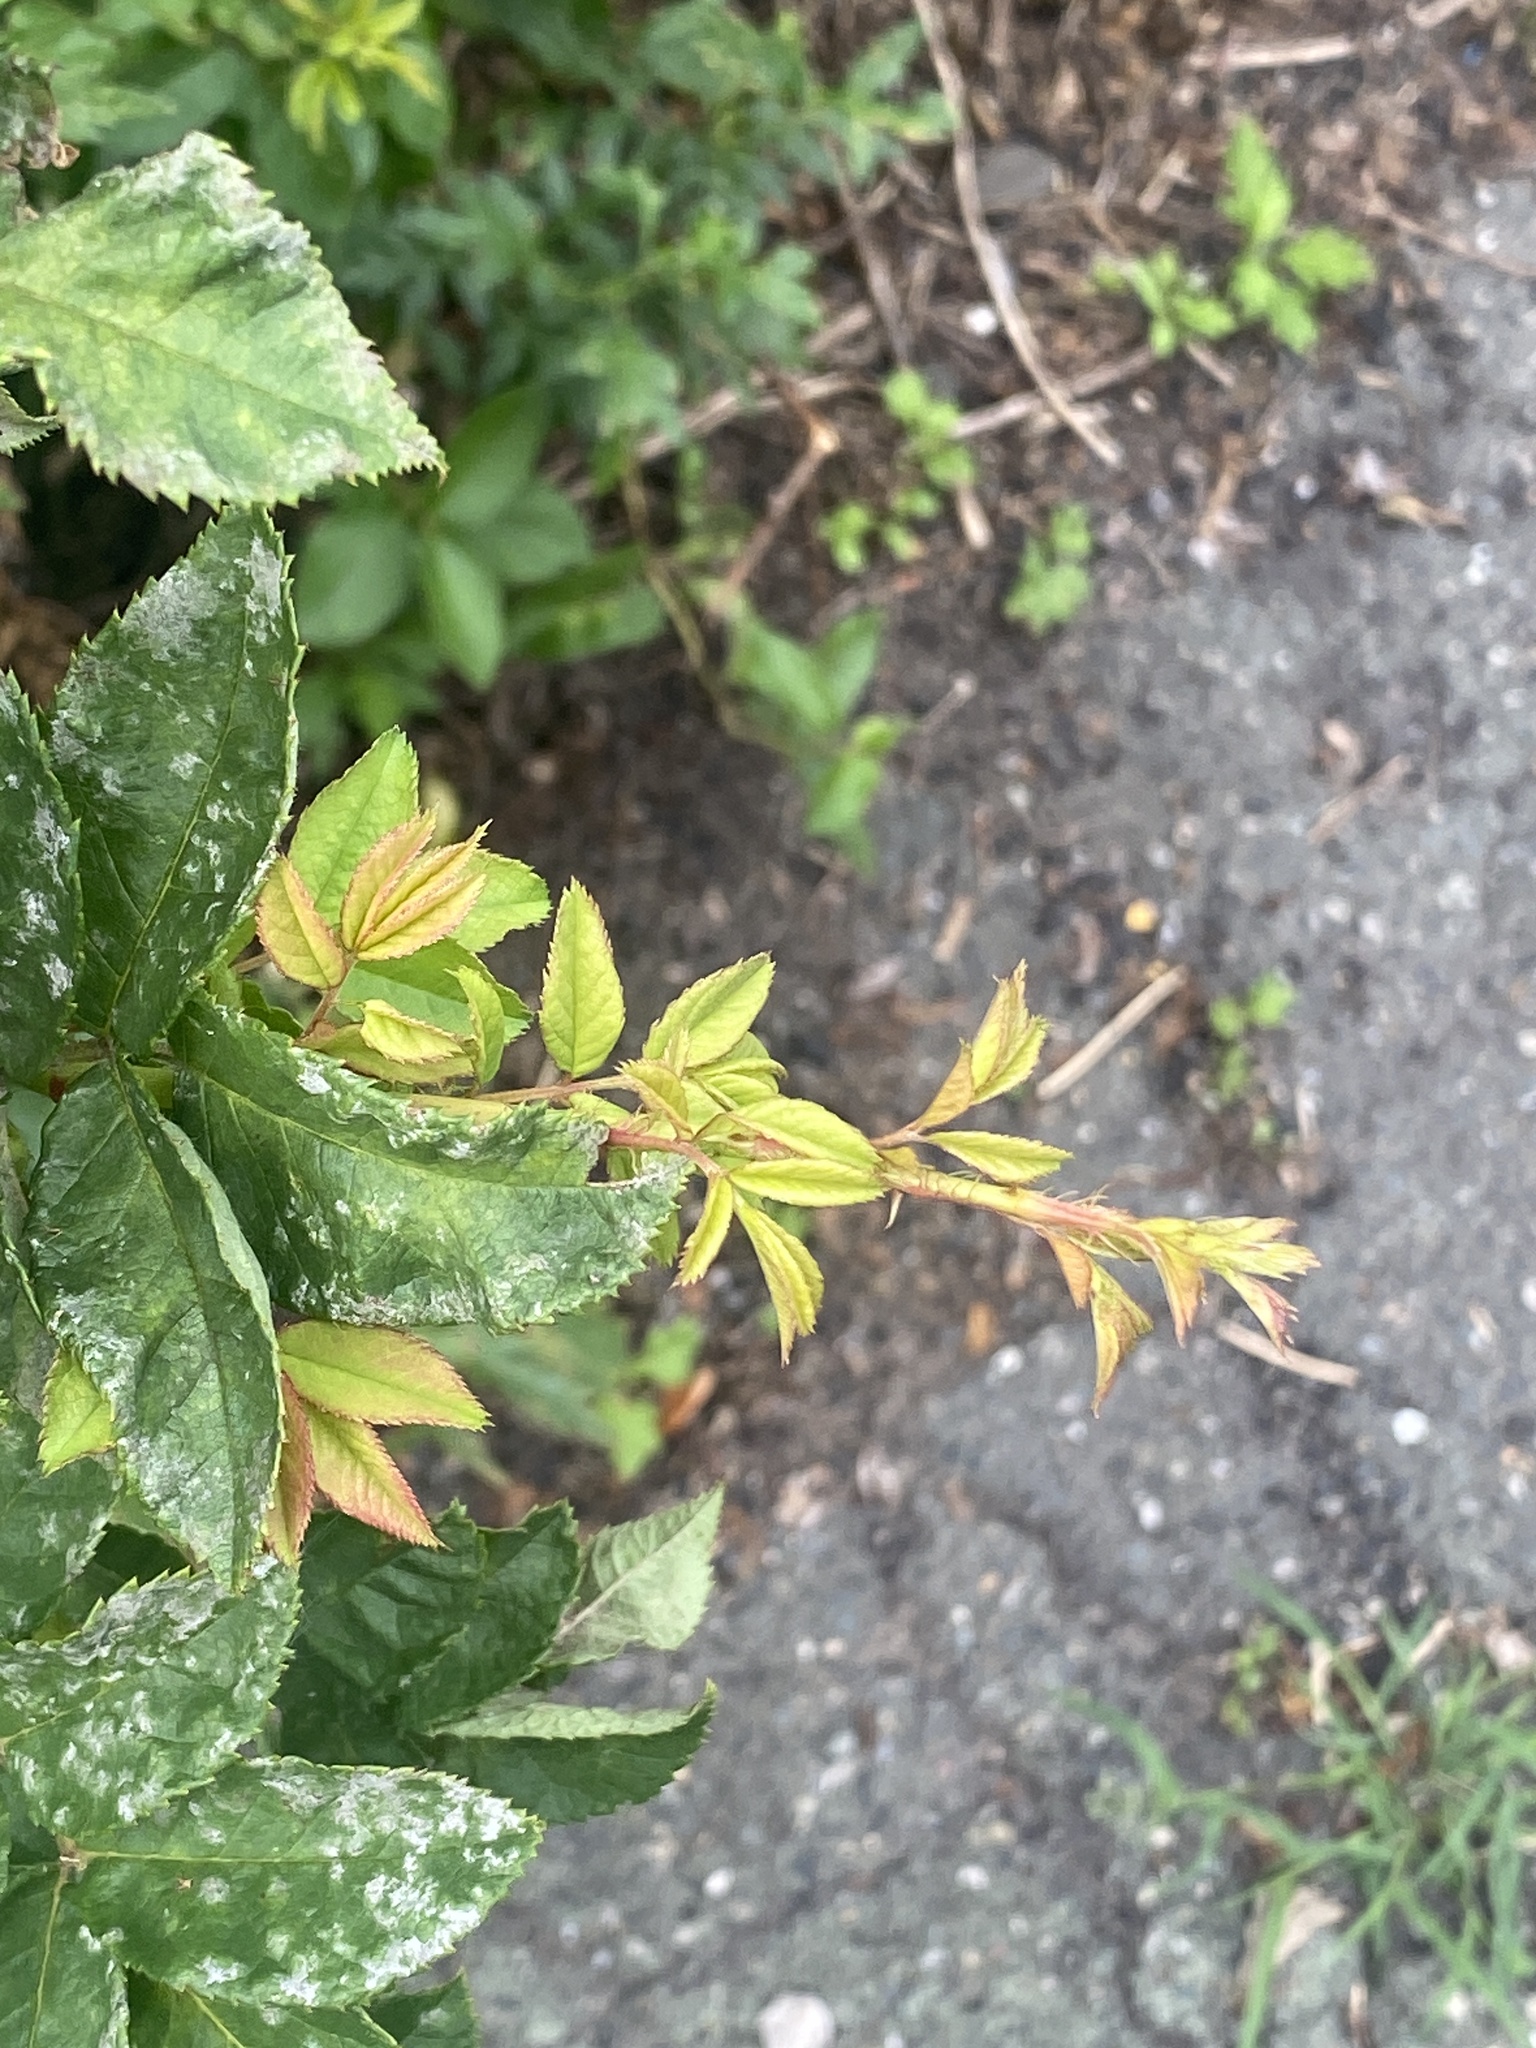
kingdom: Viruses
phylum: Negarnaviricota
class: Ellioviricetes
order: Bunyavirales
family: Fimoviridae
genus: Emaravirus
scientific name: Emaravirus rosae
